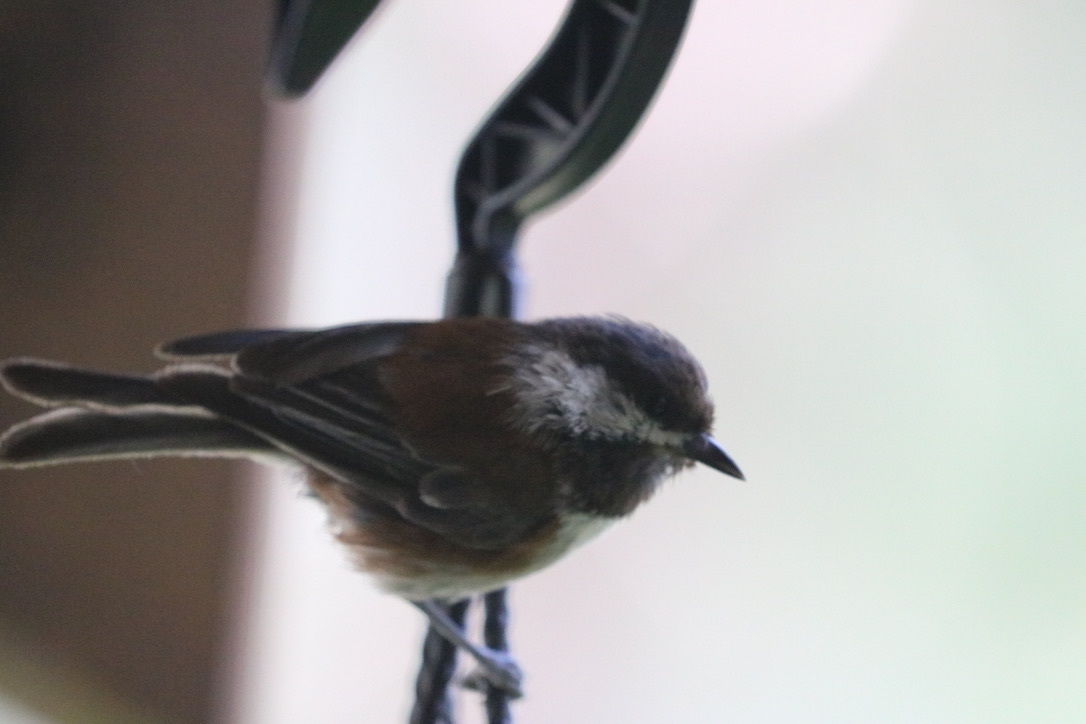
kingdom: Animalia
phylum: Chordata
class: Aves
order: Passeriformes
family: Paridae
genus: Poecile
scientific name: Poecile rufescens
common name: Chestnut-backed chickadee
